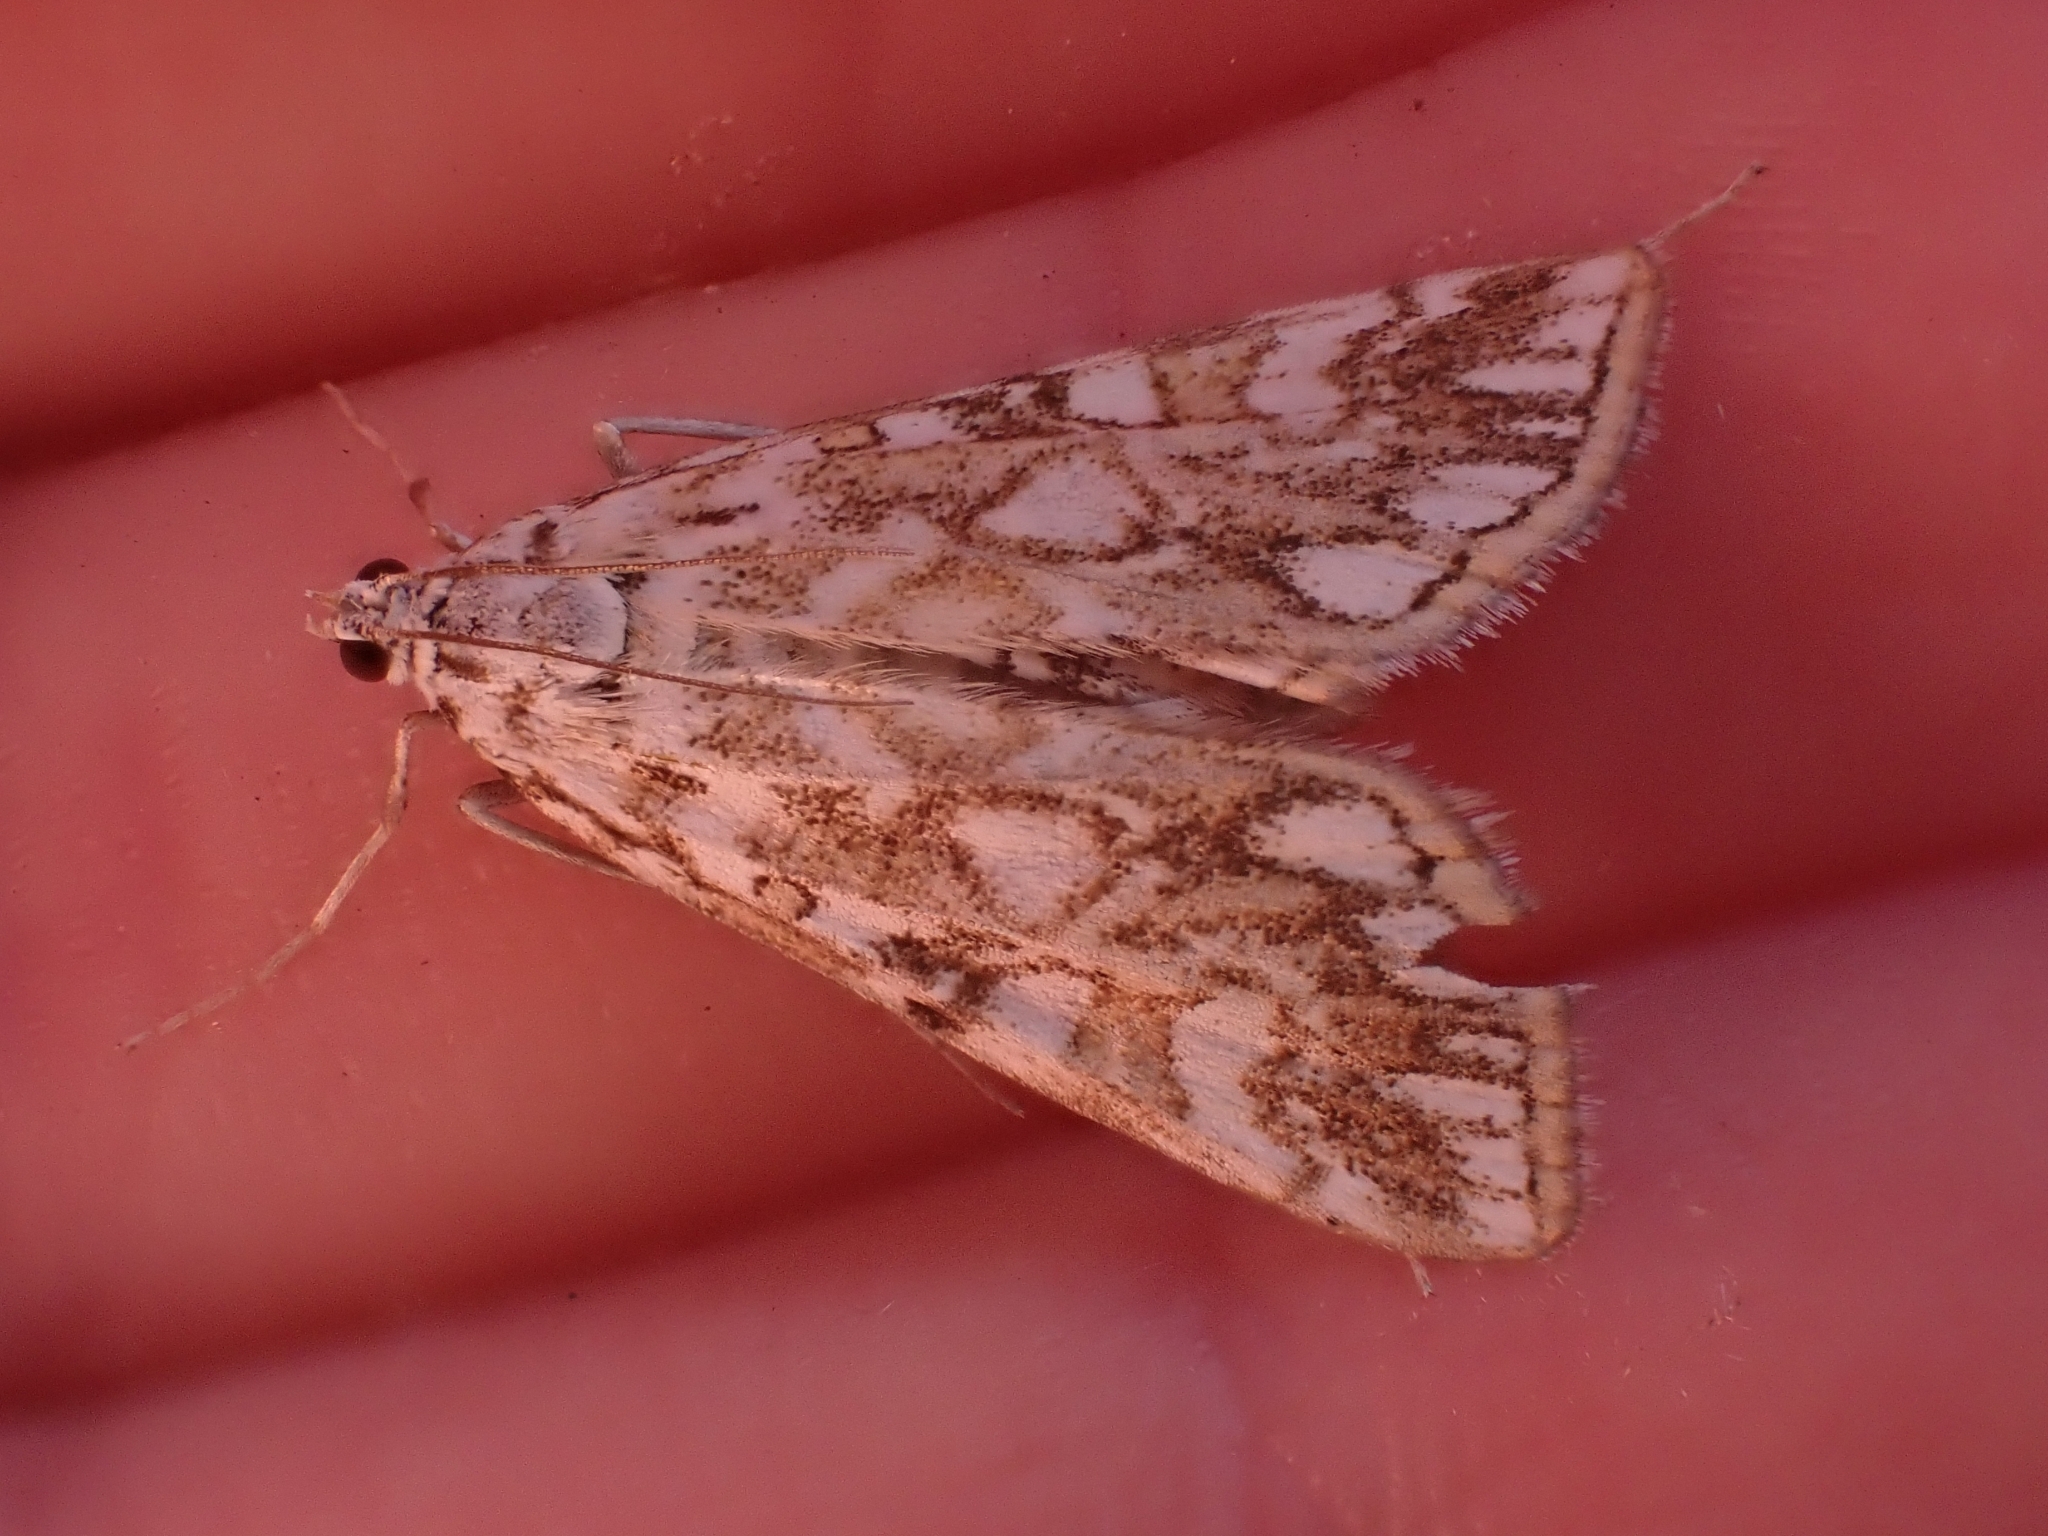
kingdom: Animalia
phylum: Arthropoda
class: Insecta
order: Lepidoptera
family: Crambidae
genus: Elophila
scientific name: Elophila nymphaeata
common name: Brown china-mark
